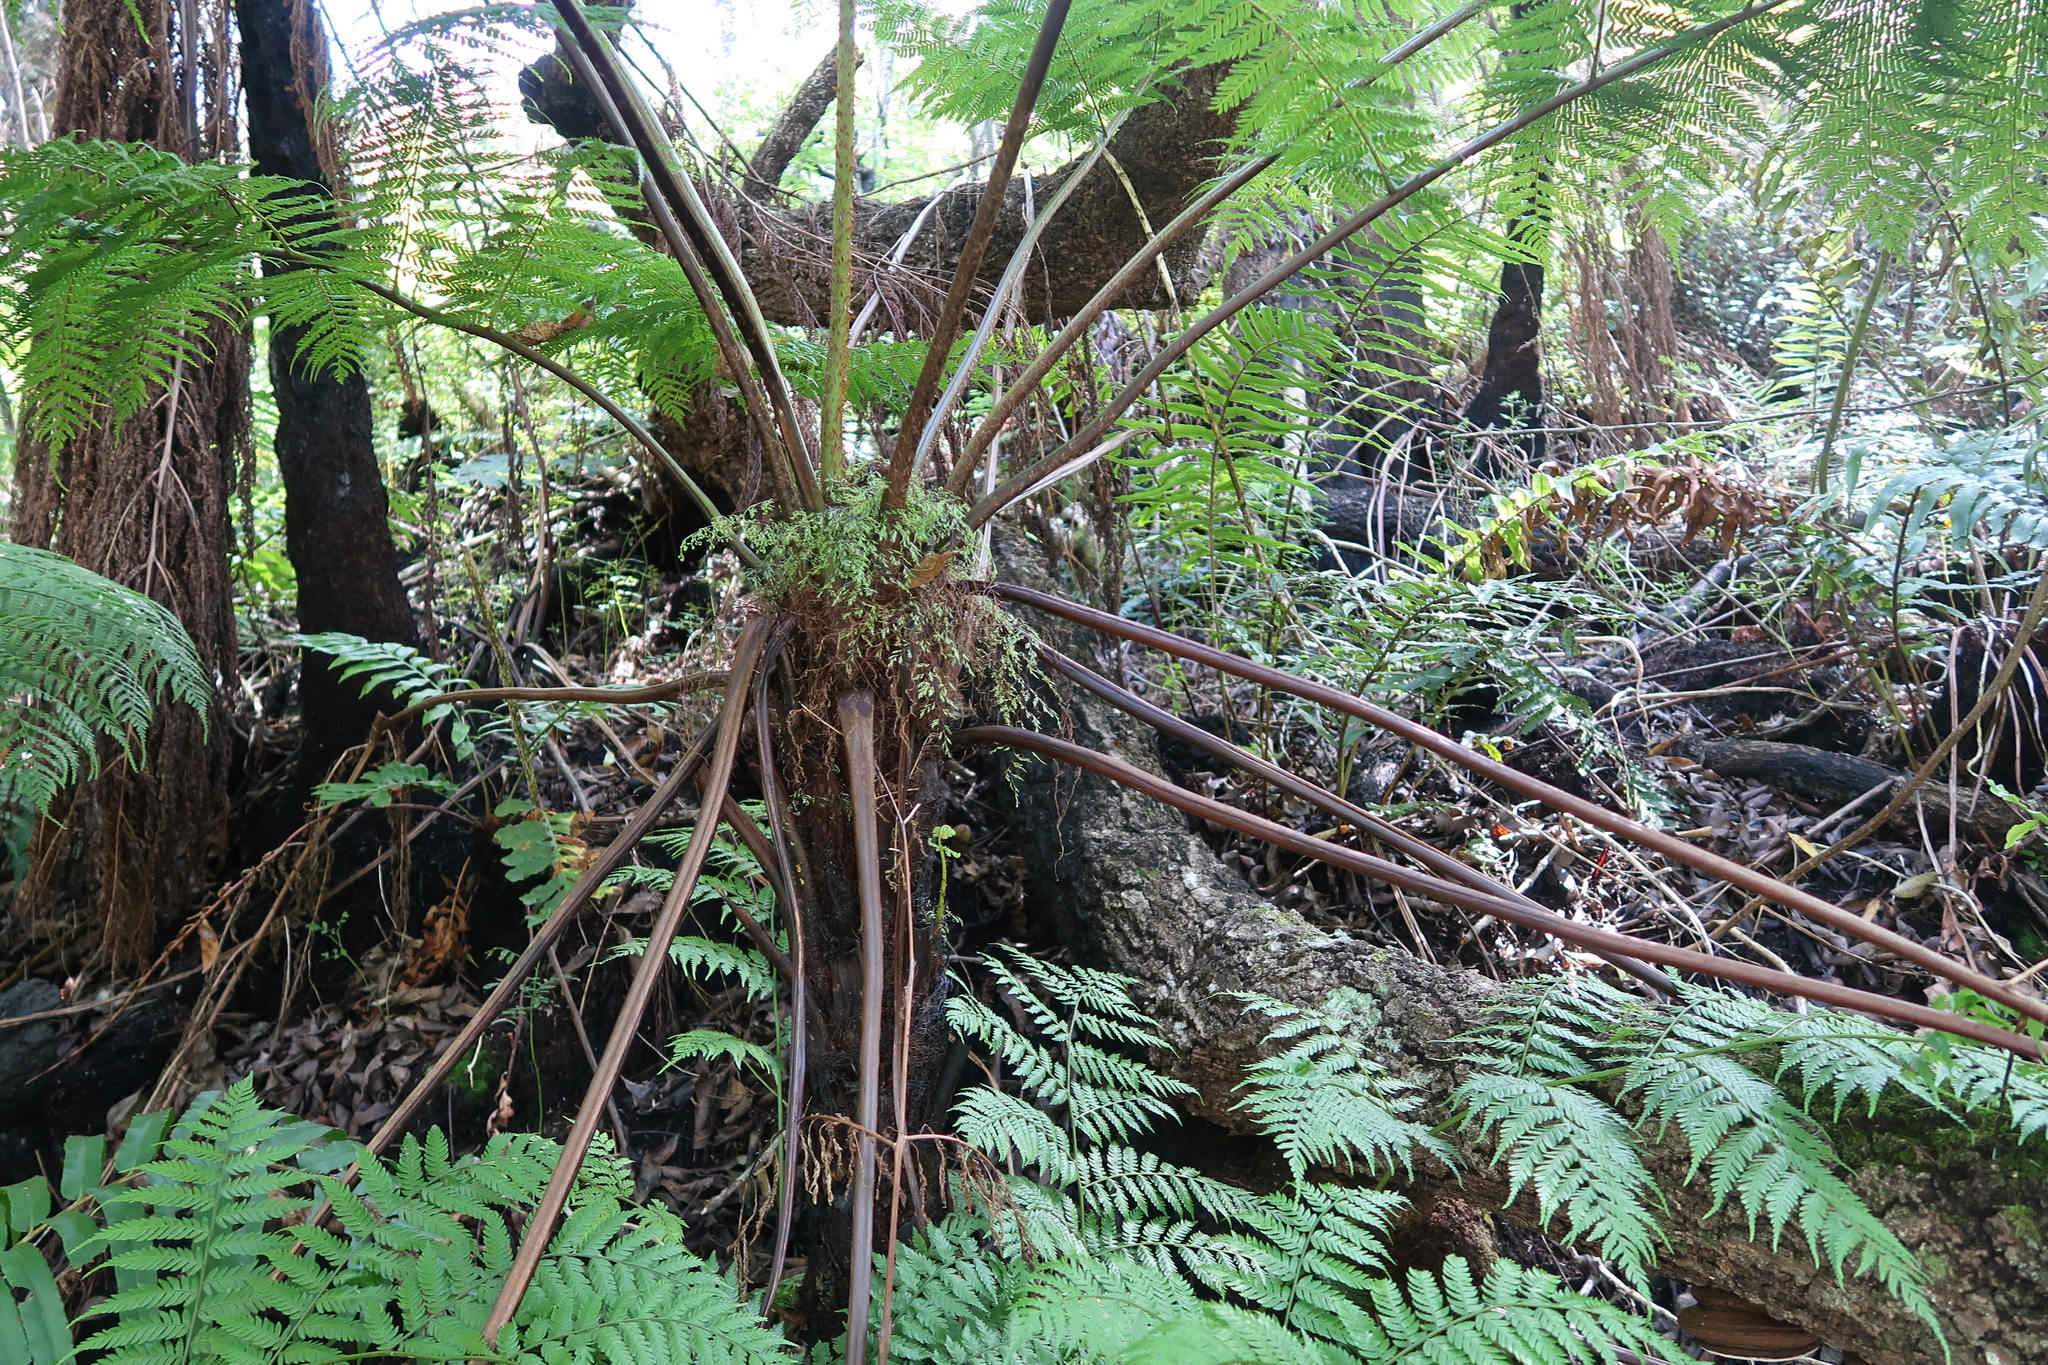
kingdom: Plantae
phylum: Tracheophyta
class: Polypodiopsida
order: Cyatheales
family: Cyatheaceae
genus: Gymnosphaera
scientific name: Gymnosphaera capensis
